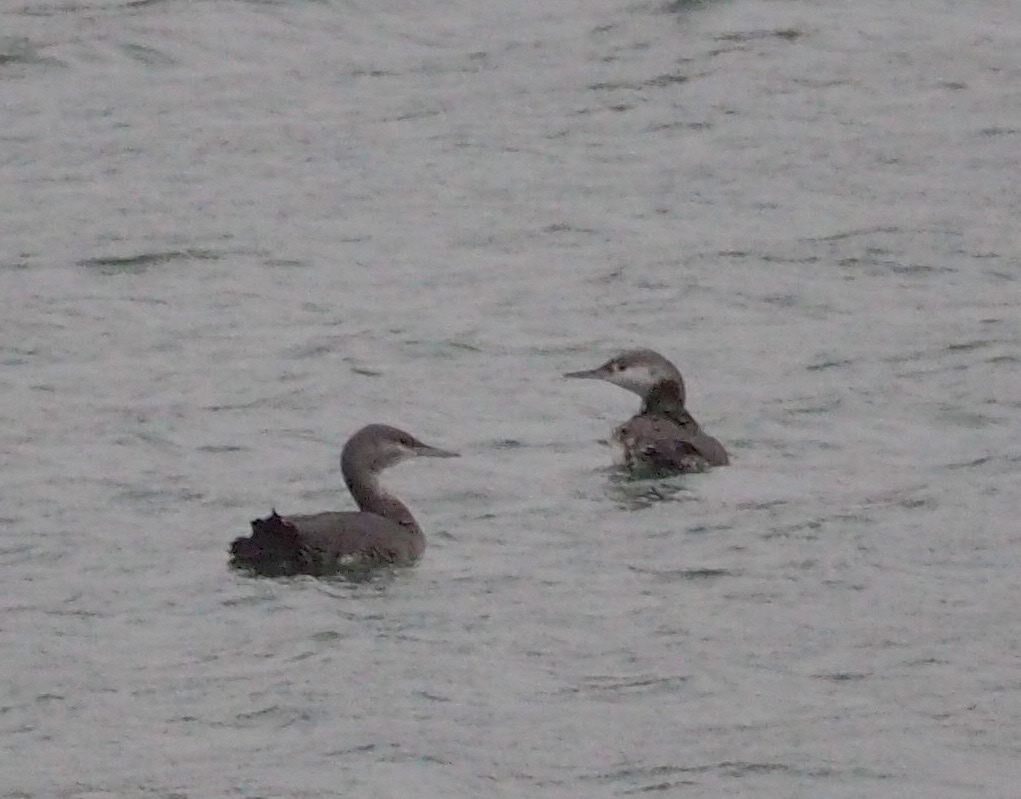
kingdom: Animalia
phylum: Chordata
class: Aves
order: Gaviiformes
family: Gaviidae
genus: Gavia
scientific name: Gavia stellata
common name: Red-throated loon
